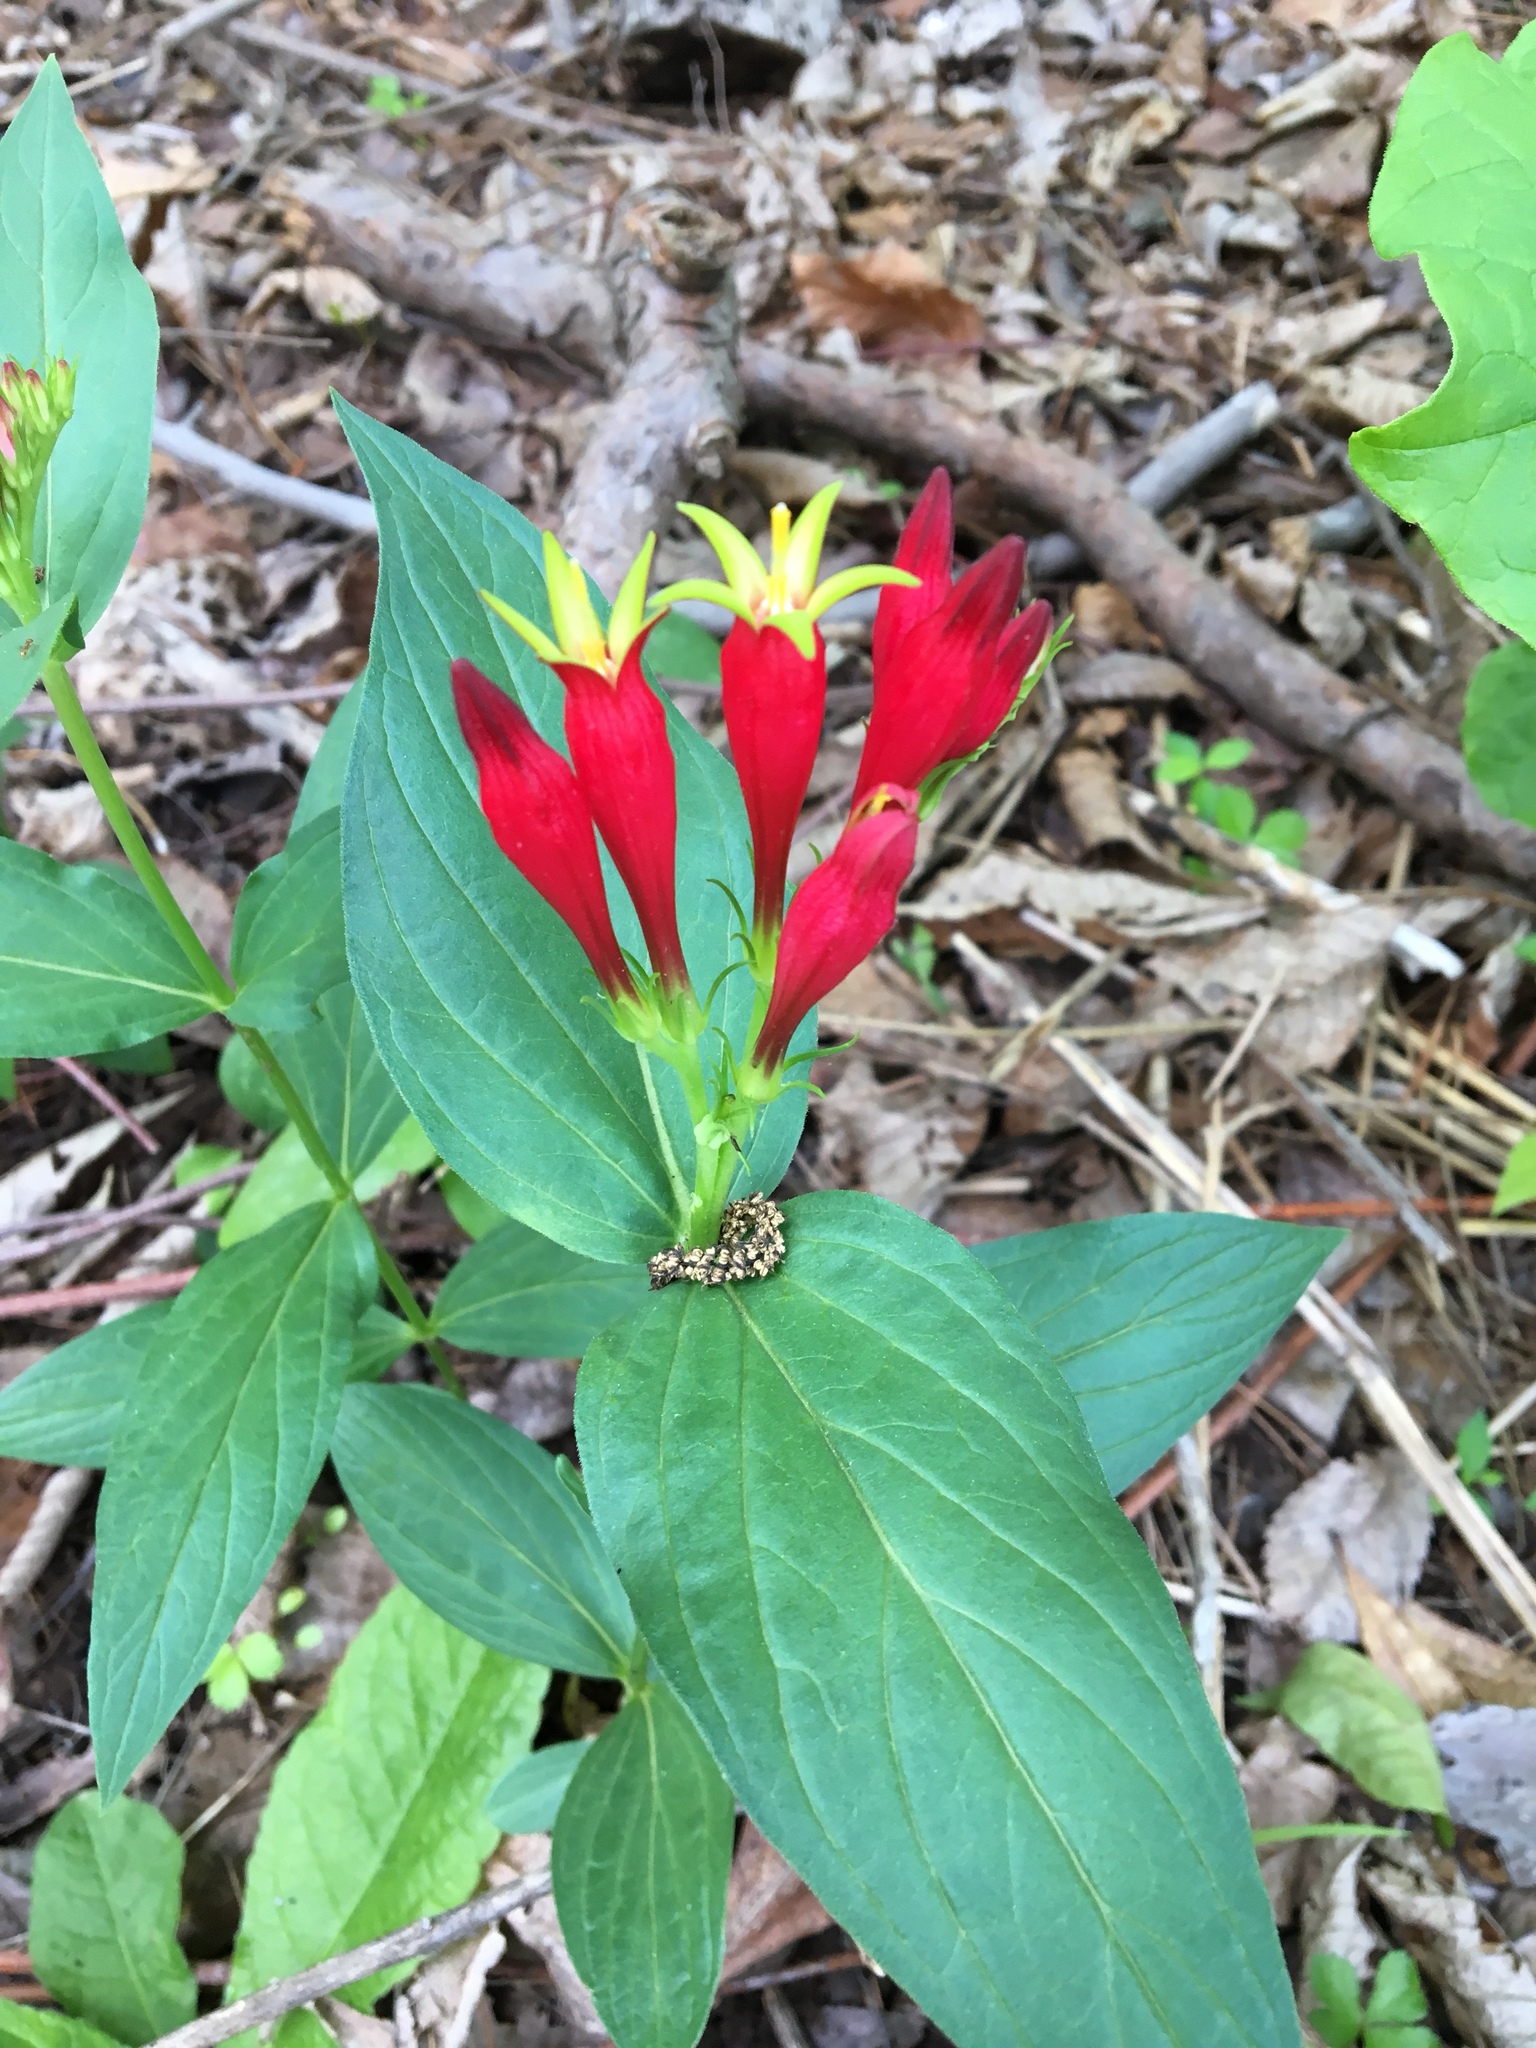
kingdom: Plantae
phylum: Tracheophyta
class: Magnoliopsida
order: Gentianales
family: Loganiaceae
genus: Spigelia
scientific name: Spigelia marilandica
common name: Indian-pink
